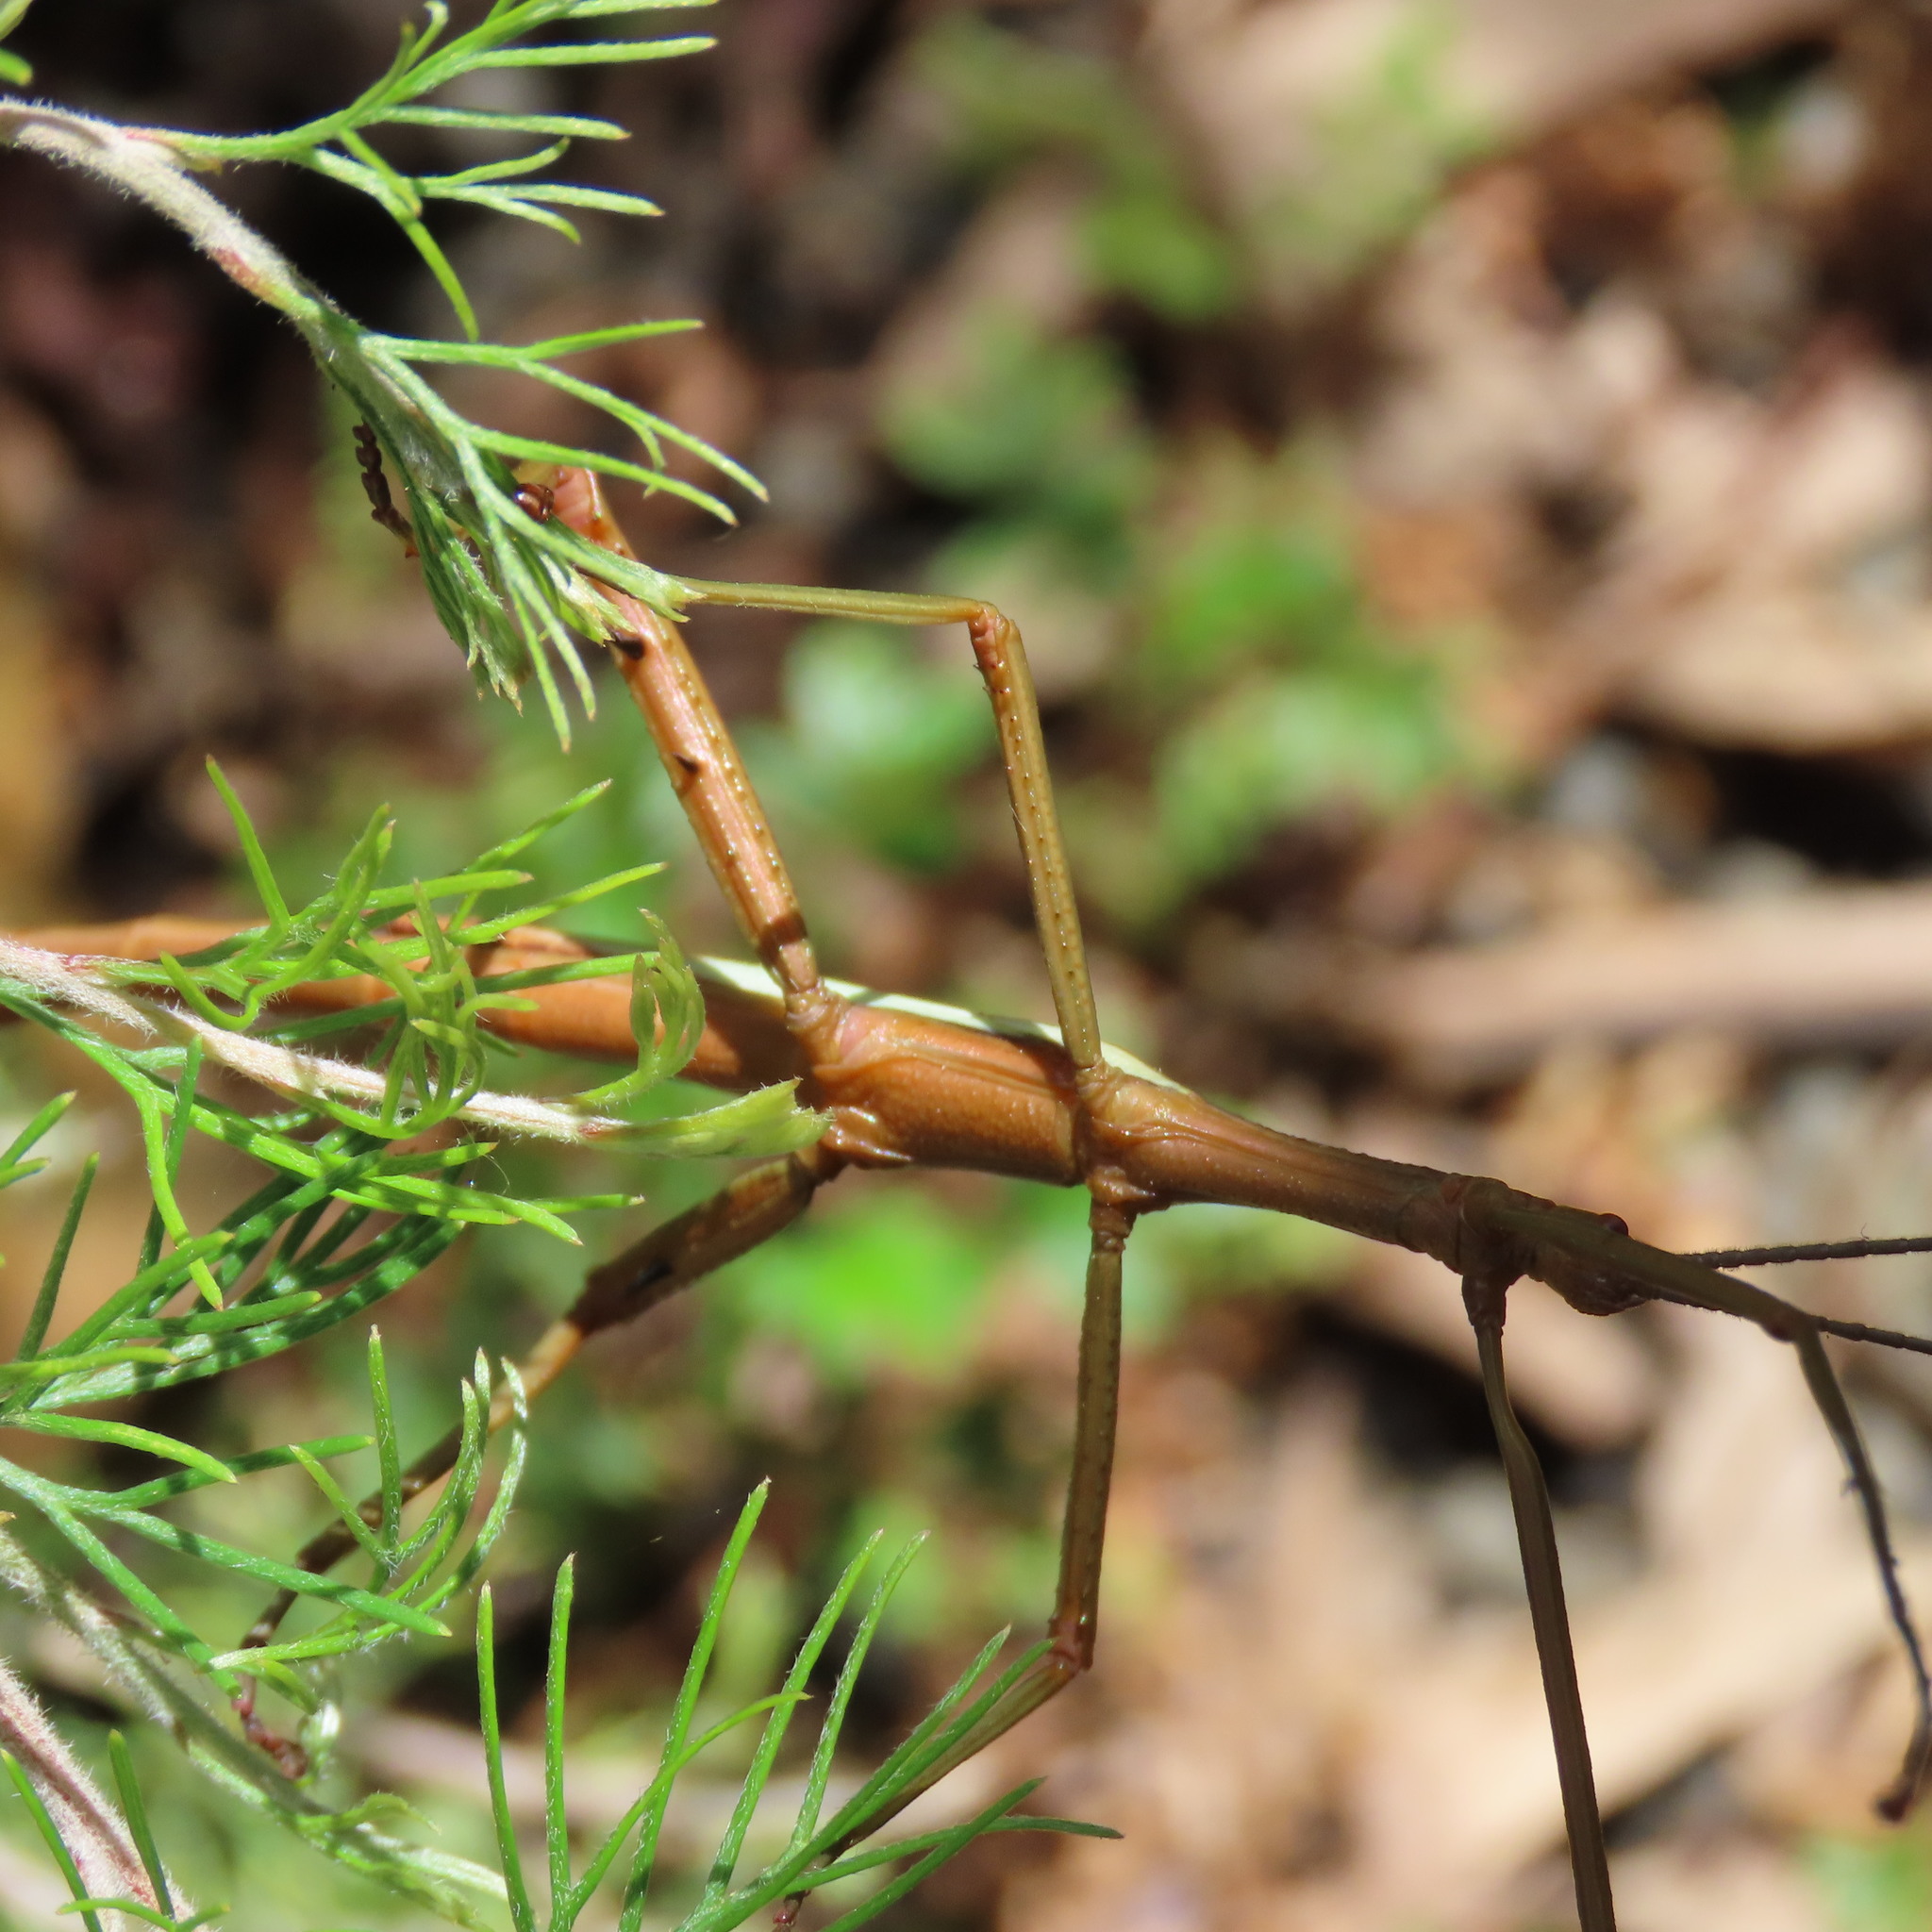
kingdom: Animalia
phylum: Arthropoda
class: Insecta
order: Phasmida
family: Phasmatidae
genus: Didymuria
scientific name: Didymuria violescens
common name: Spur-legged stick-insect
